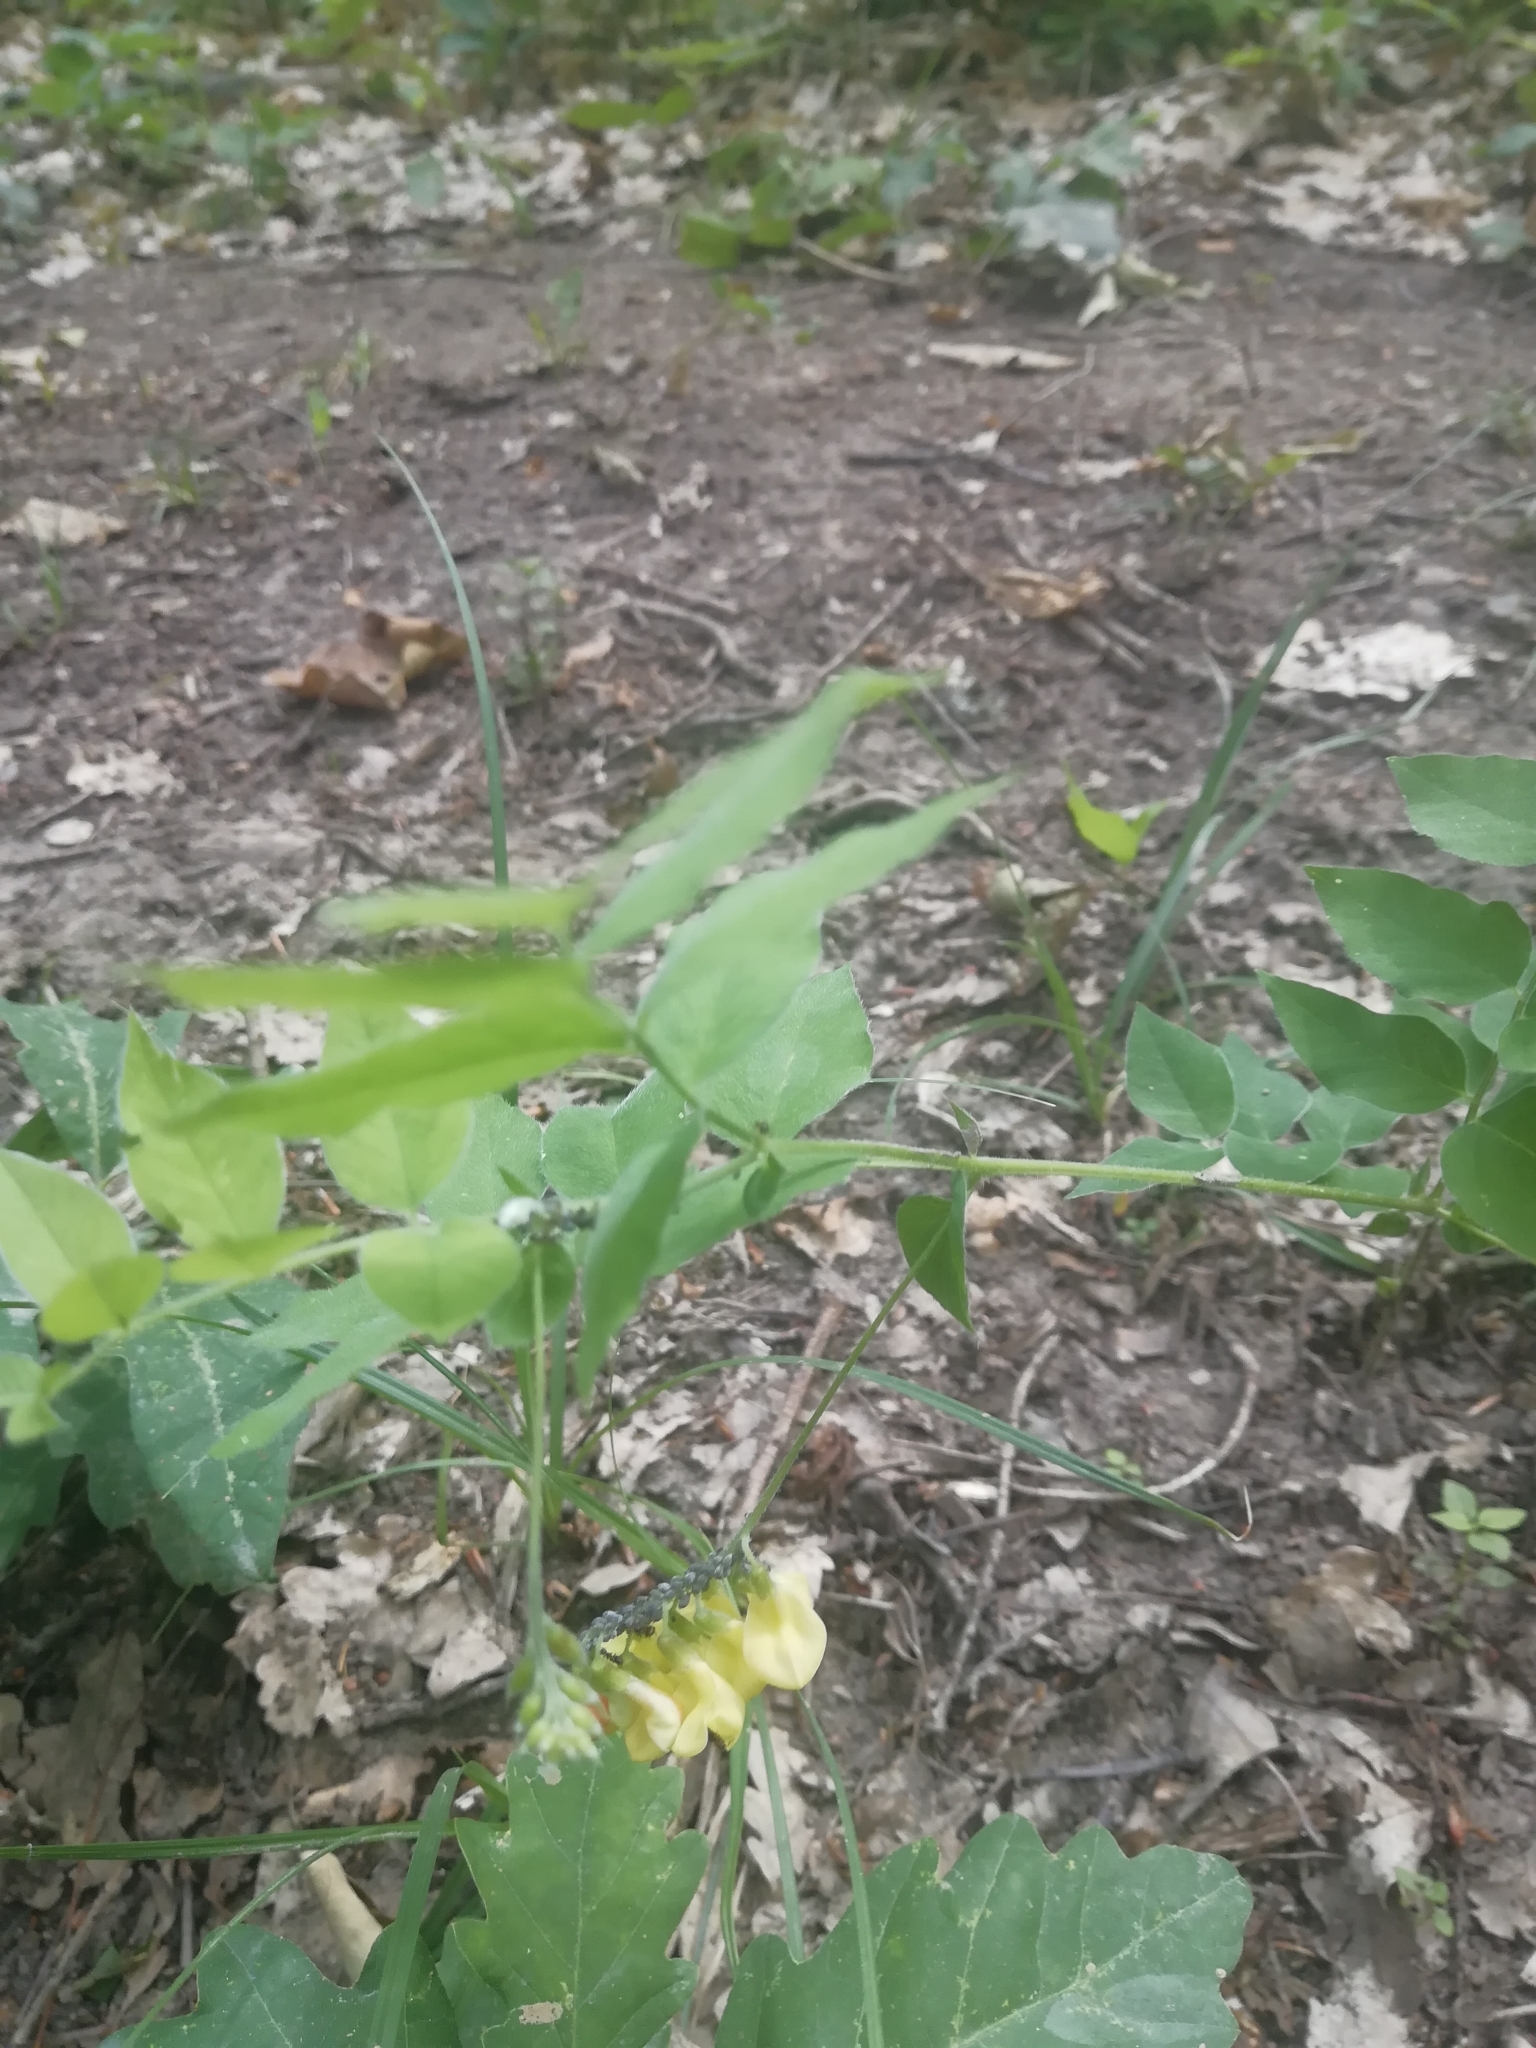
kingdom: Plantae
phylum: Tracheophyta
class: Magnoliopsida
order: Fabales
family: Fabaceae
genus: Vicia
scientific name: Vicia crocea
